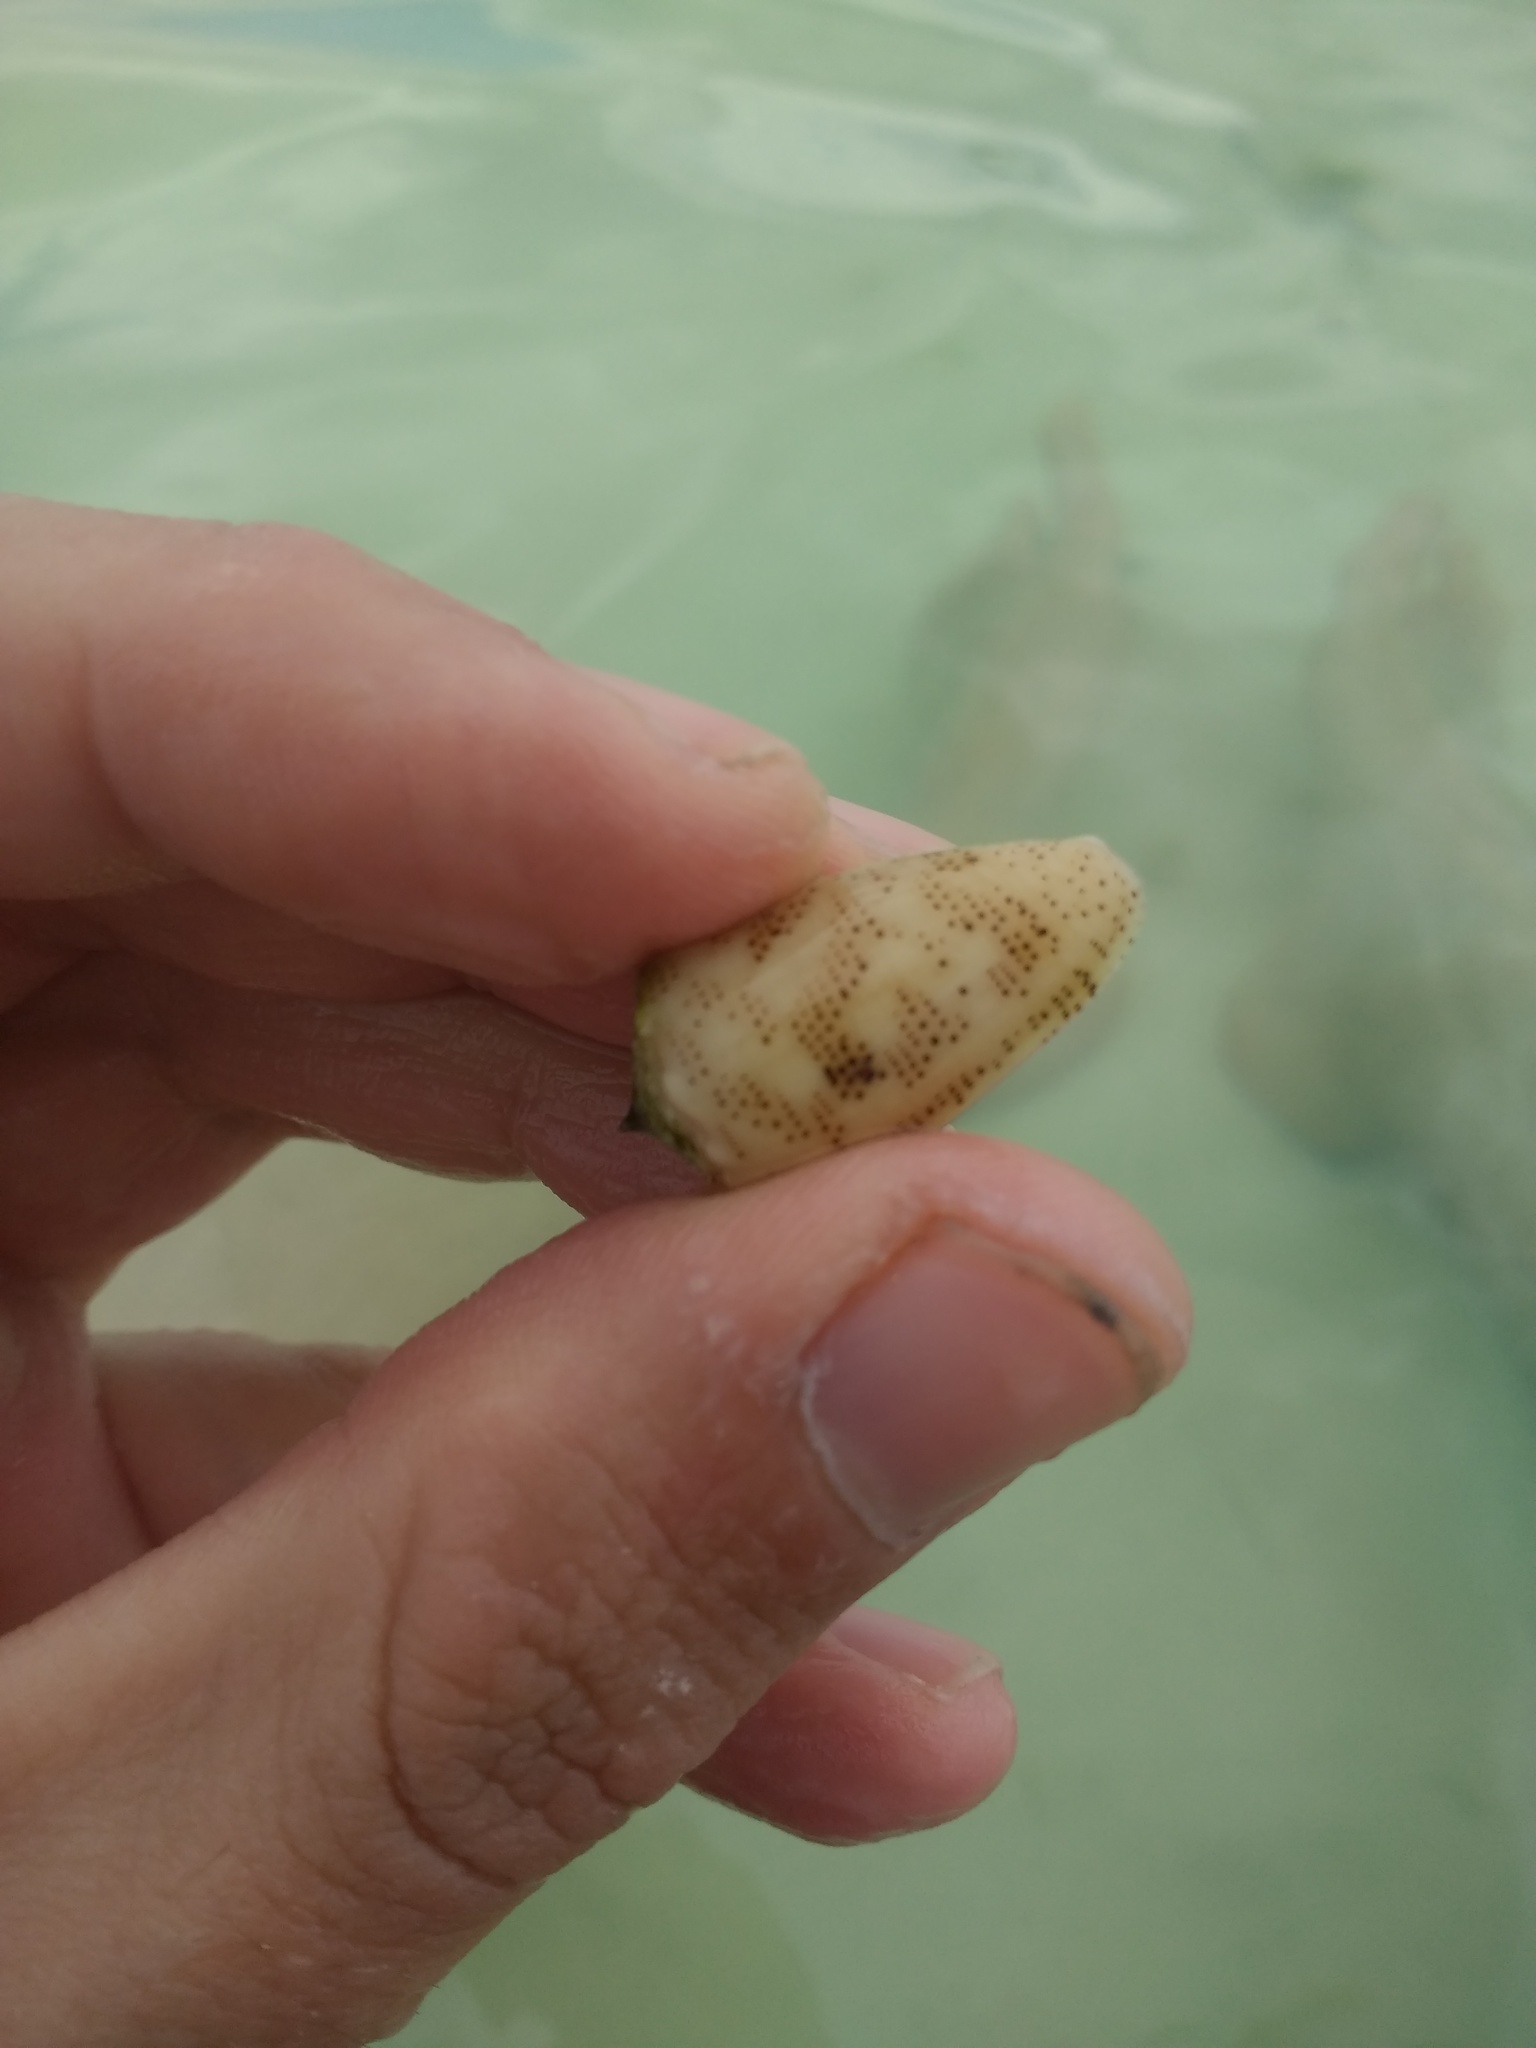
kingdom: Animalia
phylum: Mollusca
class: Gastropoda
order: Neogastropoda
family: Conidae
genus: Conus
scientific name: Conus arenatus
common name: Sand-dusted cone
